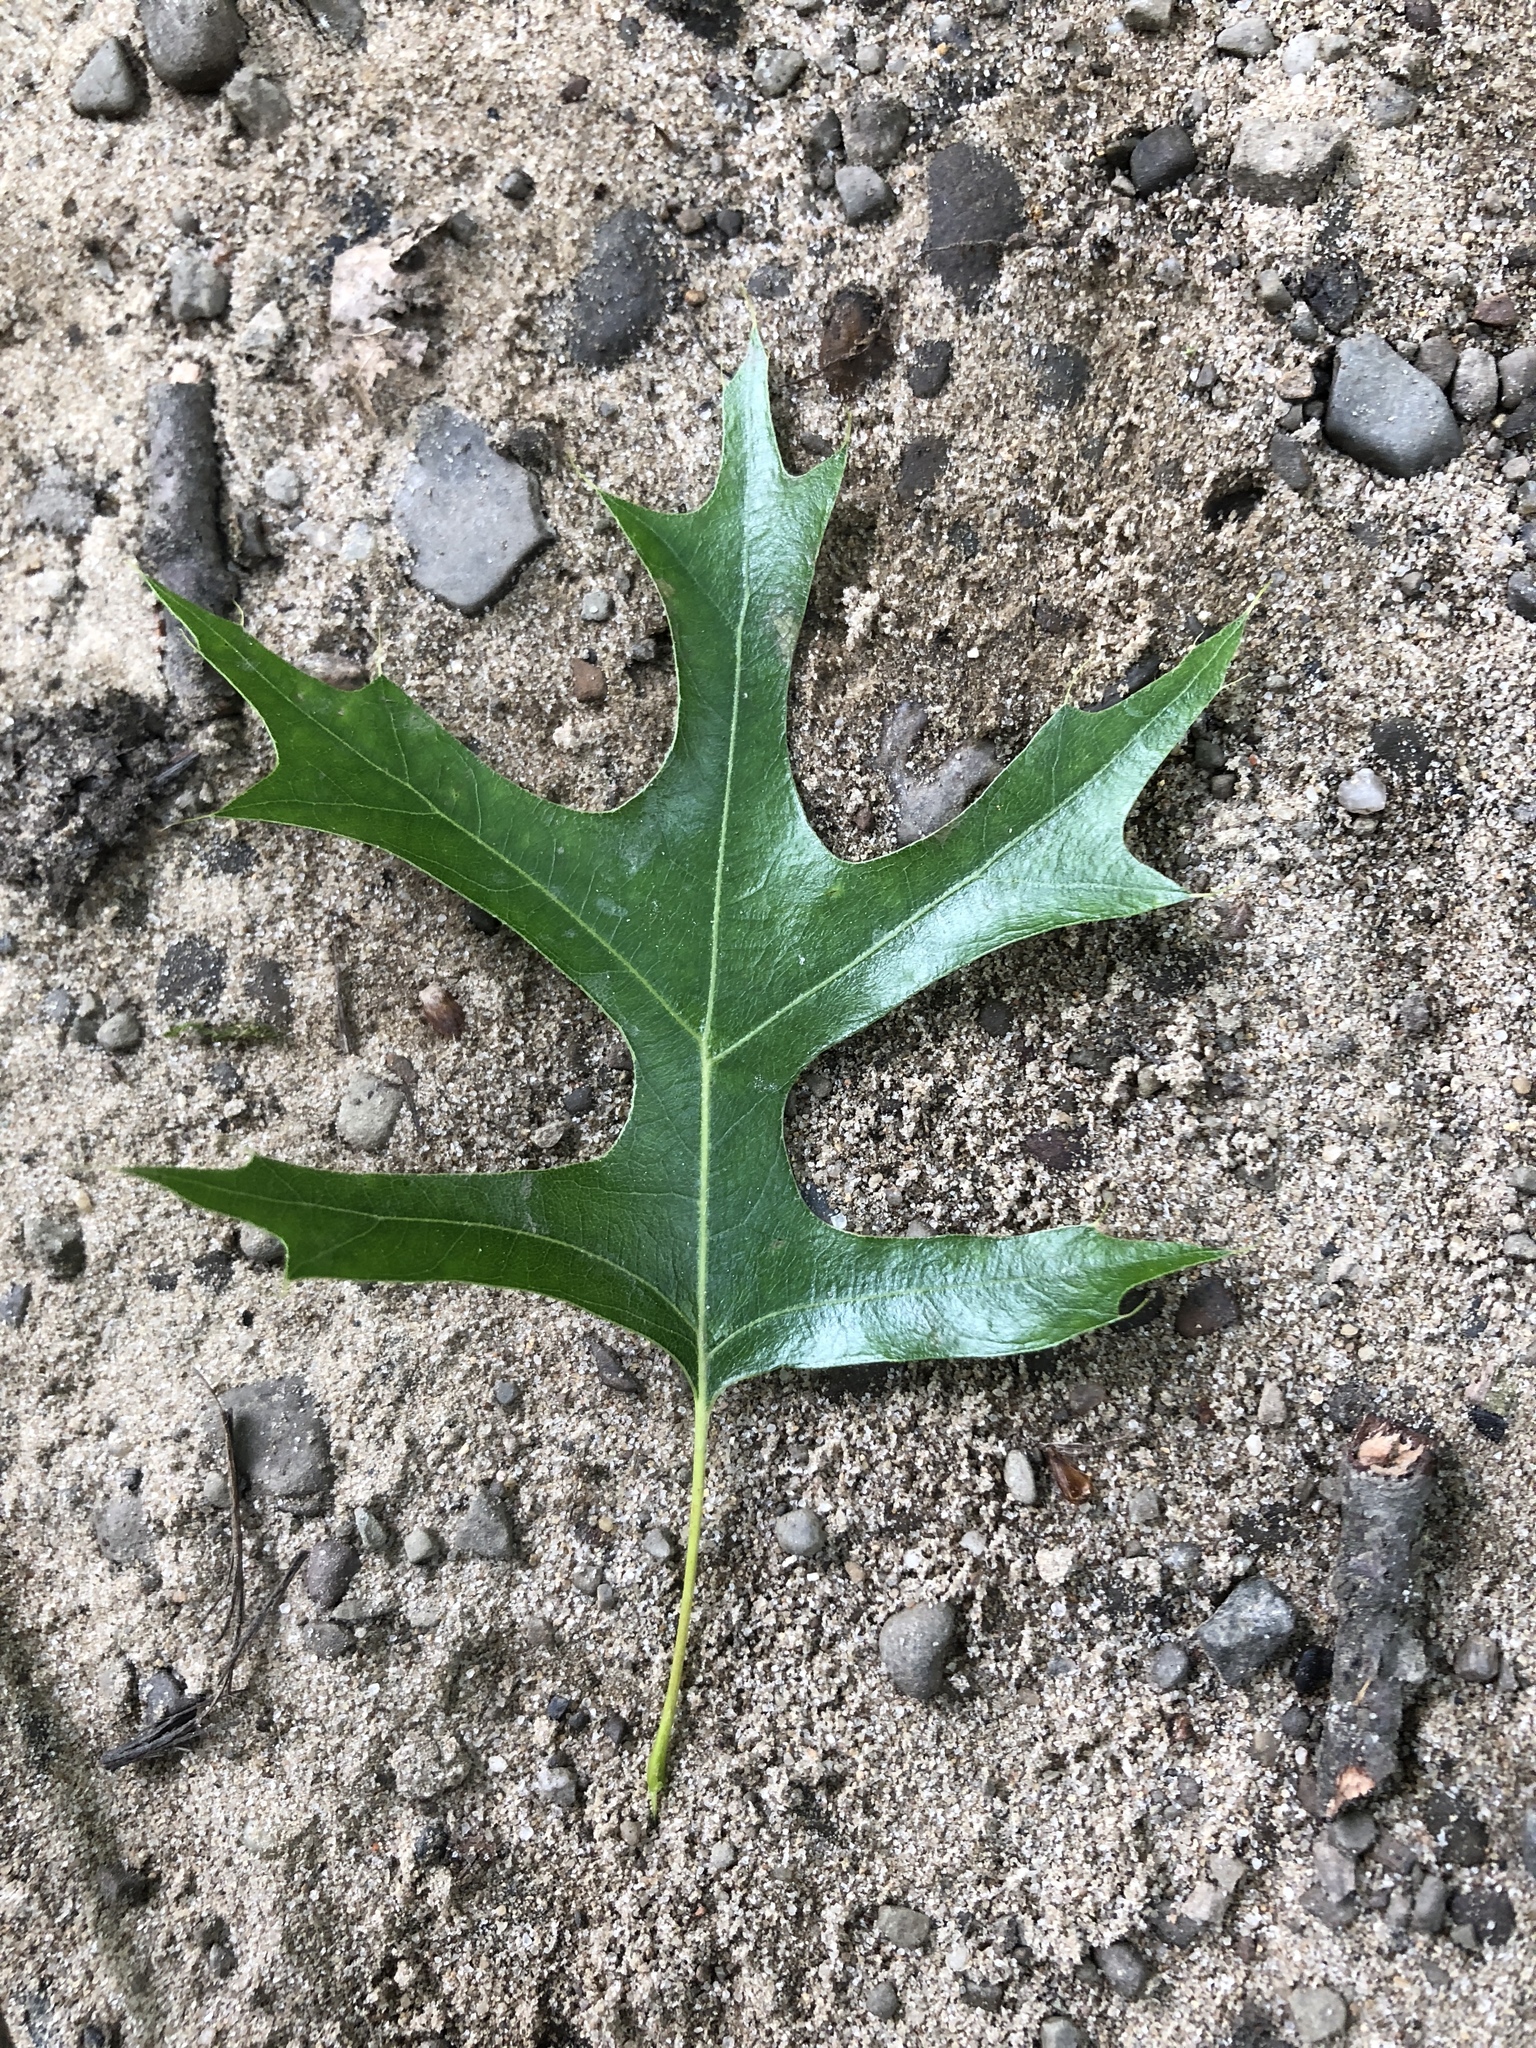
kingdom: Plantae
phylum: Tracheophyta
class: Magnoliopsida
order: Fagales
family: Fagaceae
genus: Quercus
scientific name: Quercus palustris
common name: Pin oak
